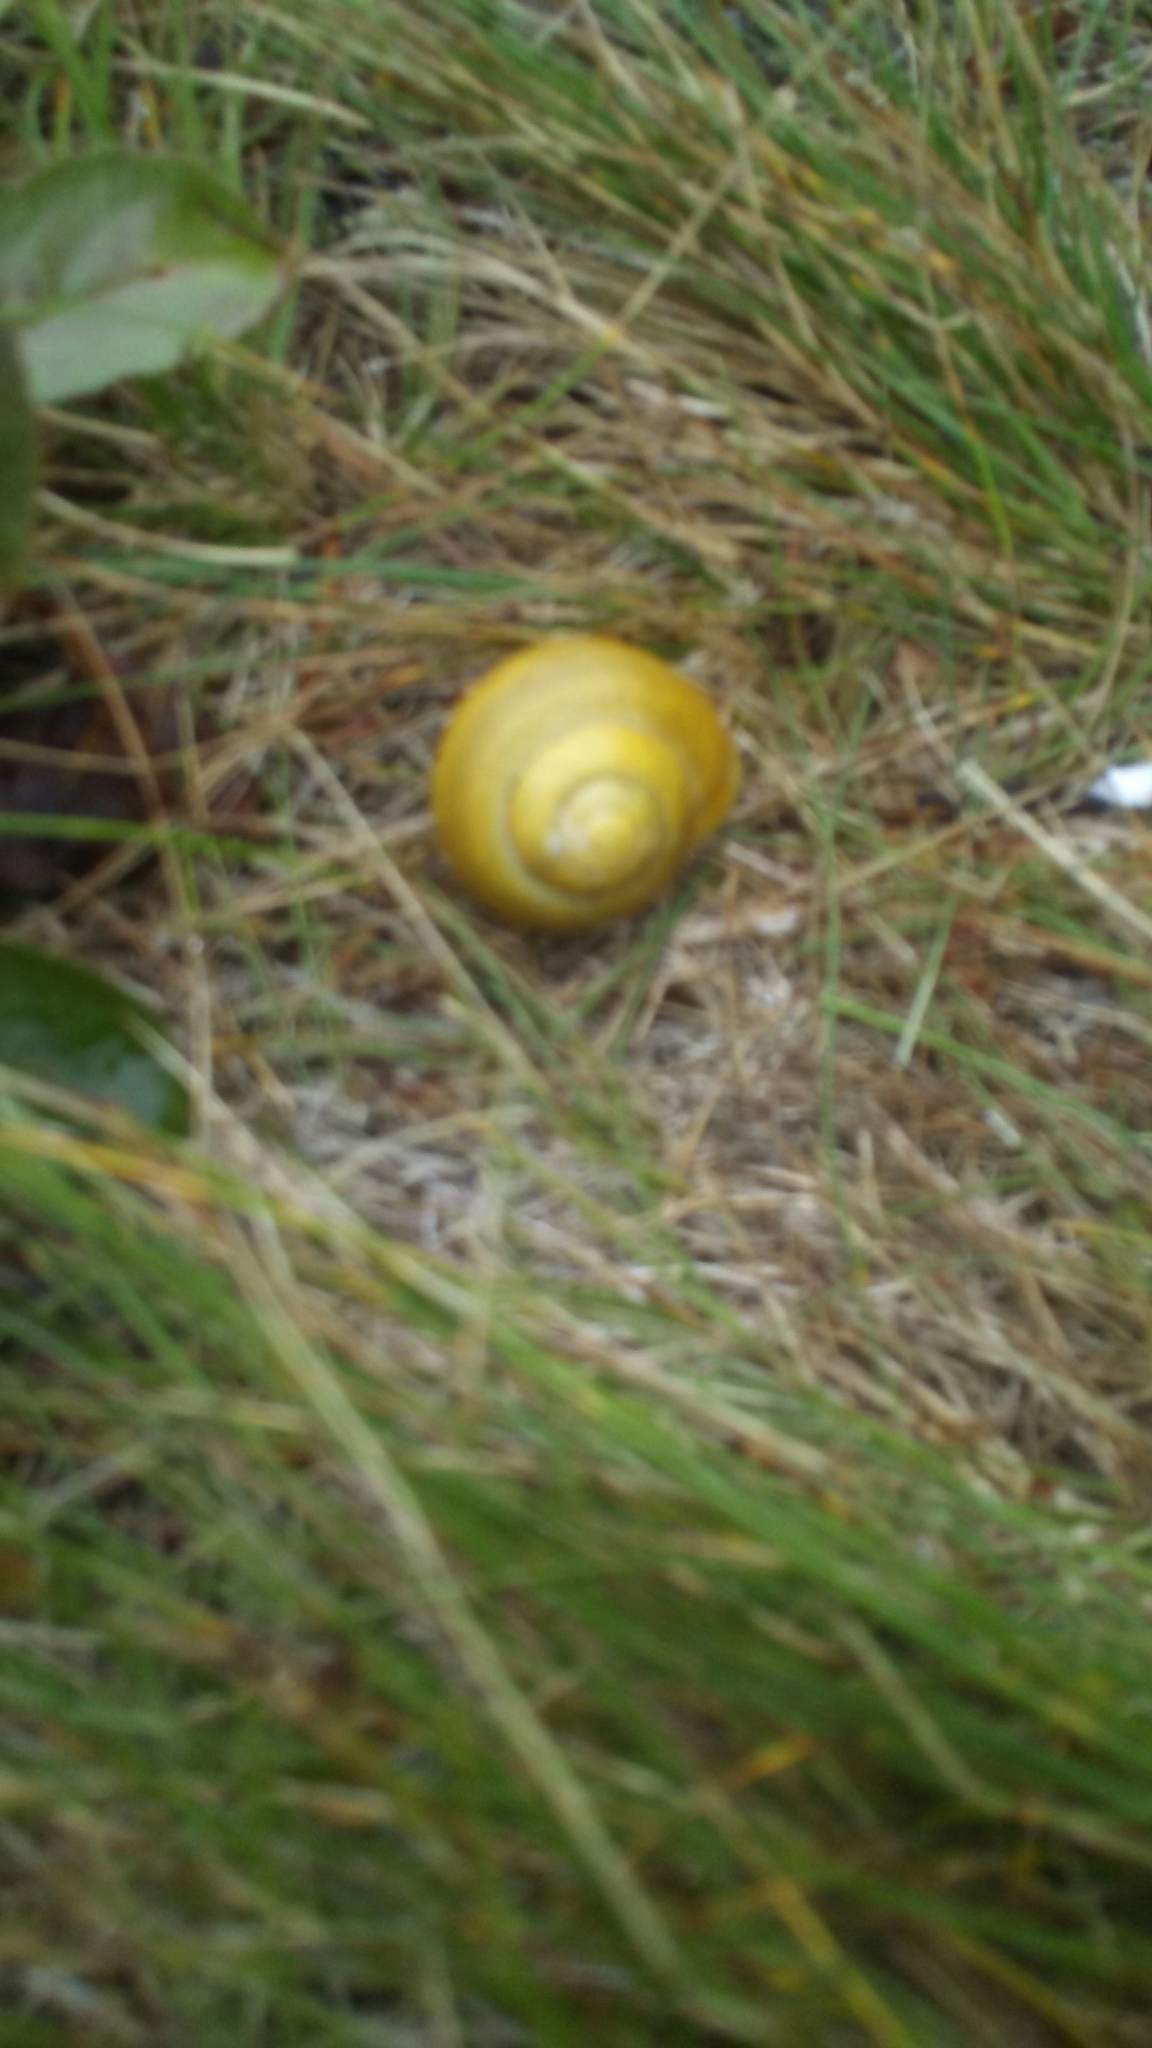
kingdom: Animalia
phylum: Mollusca
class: Gastropoda
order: Stylommatophora
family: Helicidae
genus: Cepaea
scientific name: Cepaea
